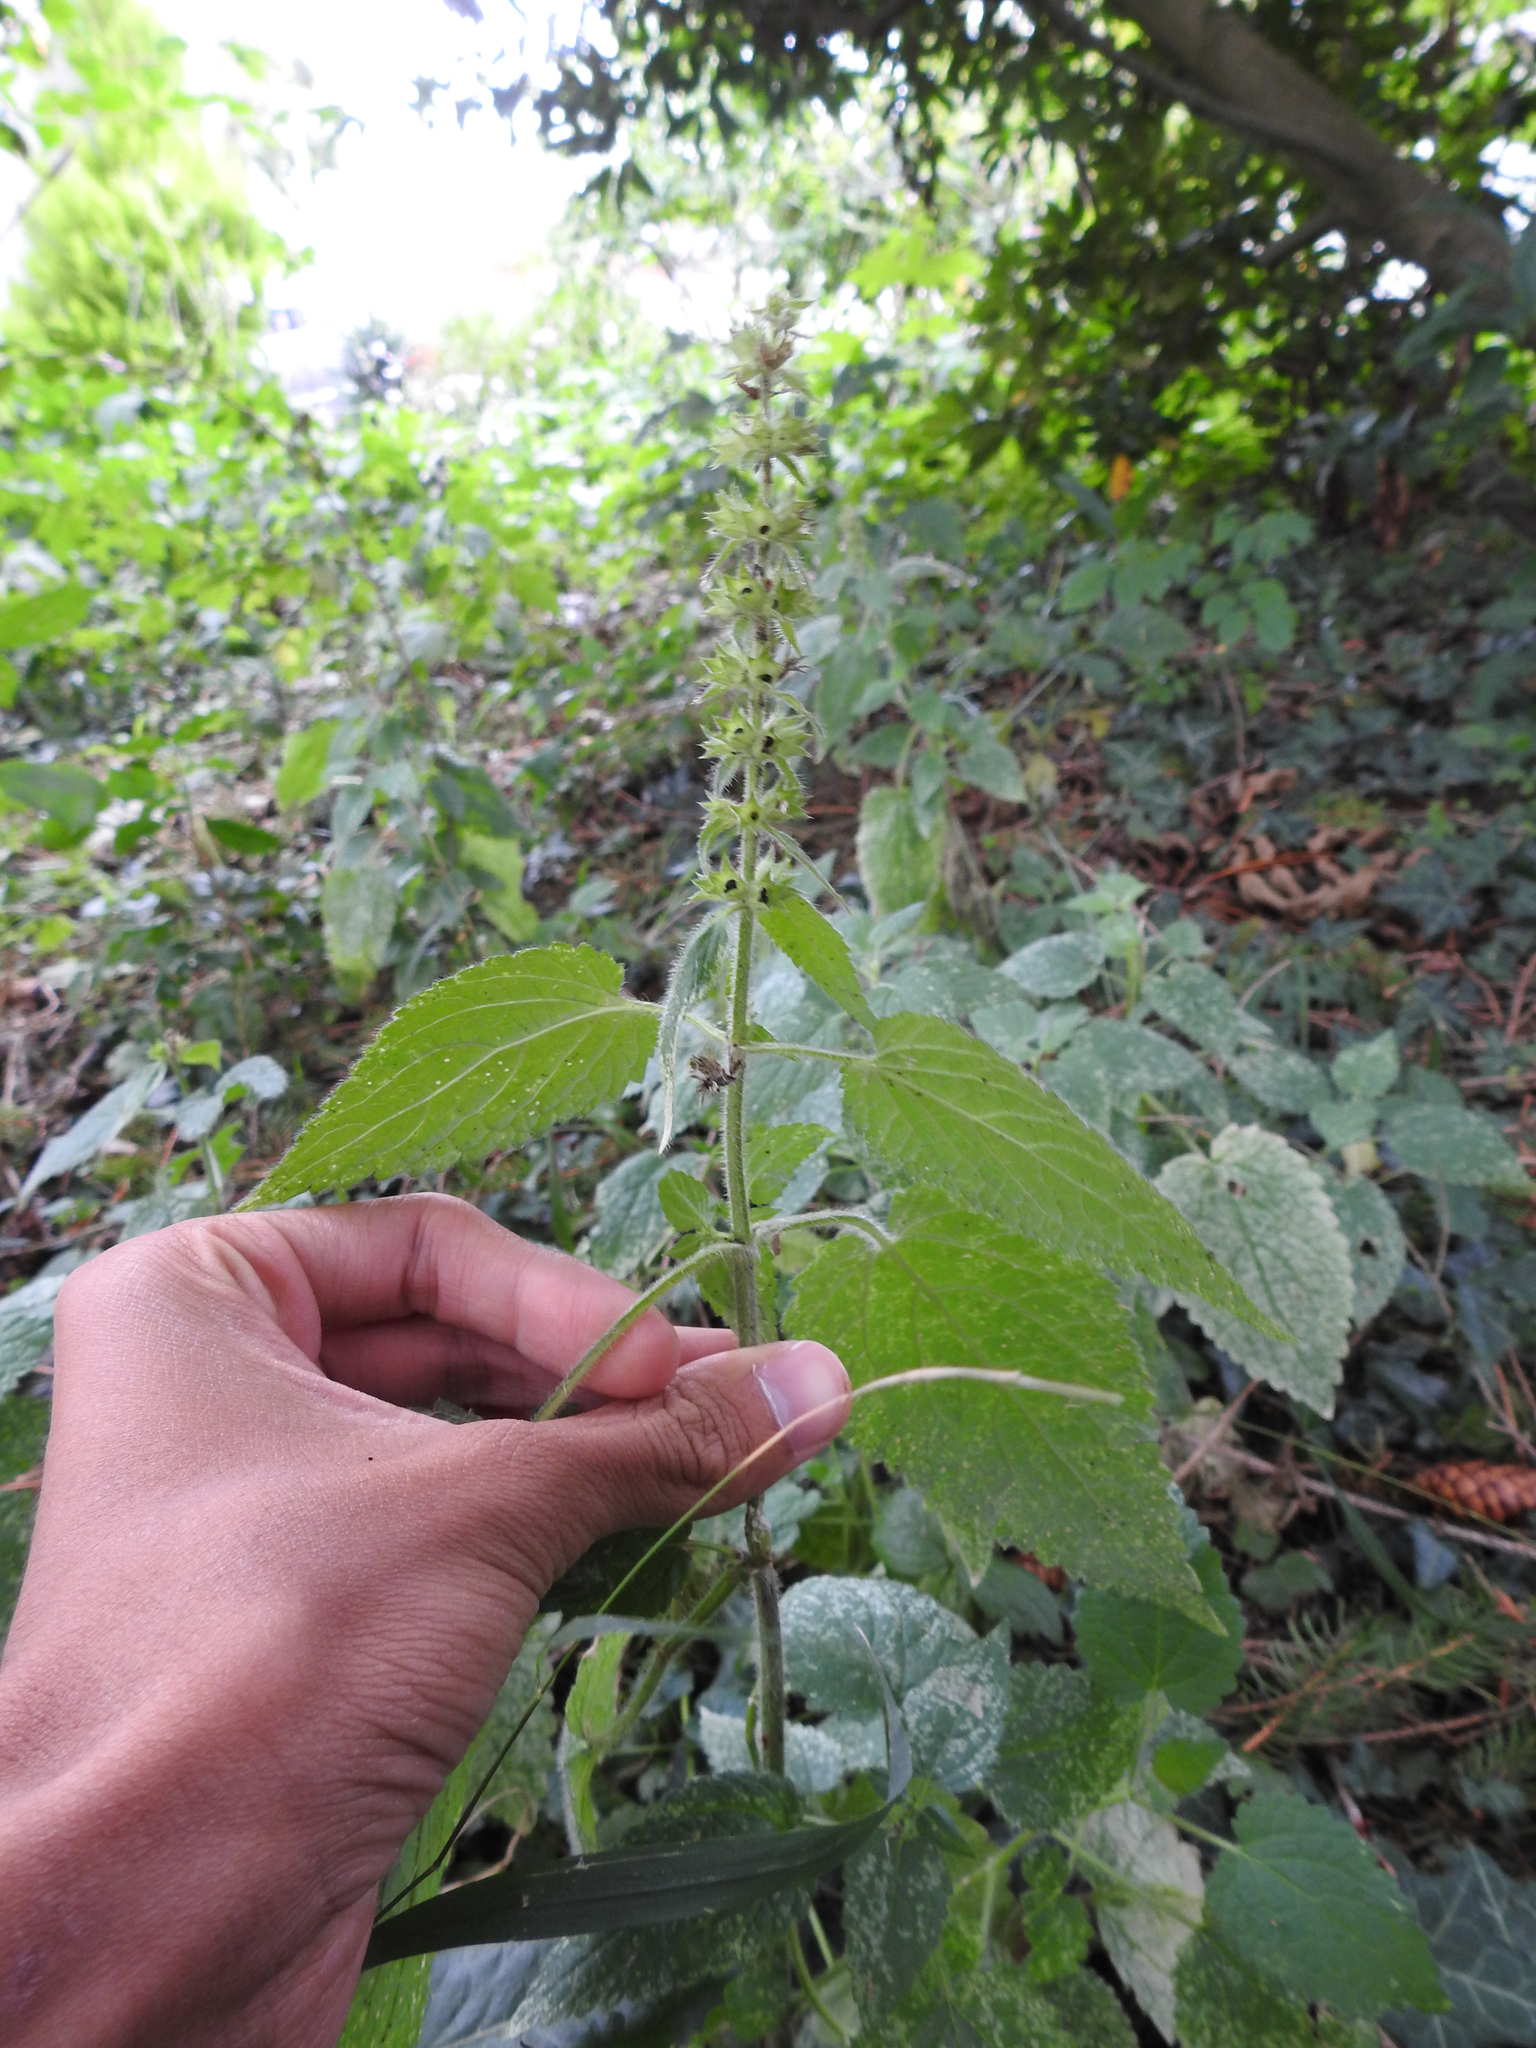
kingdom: Plantae
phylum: Tracheophyta
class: Magnoliopsida
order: Lamiales
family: Lamiaceae
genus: Stachys
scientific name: Stachys sylvatica
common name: Hedge woundwort
